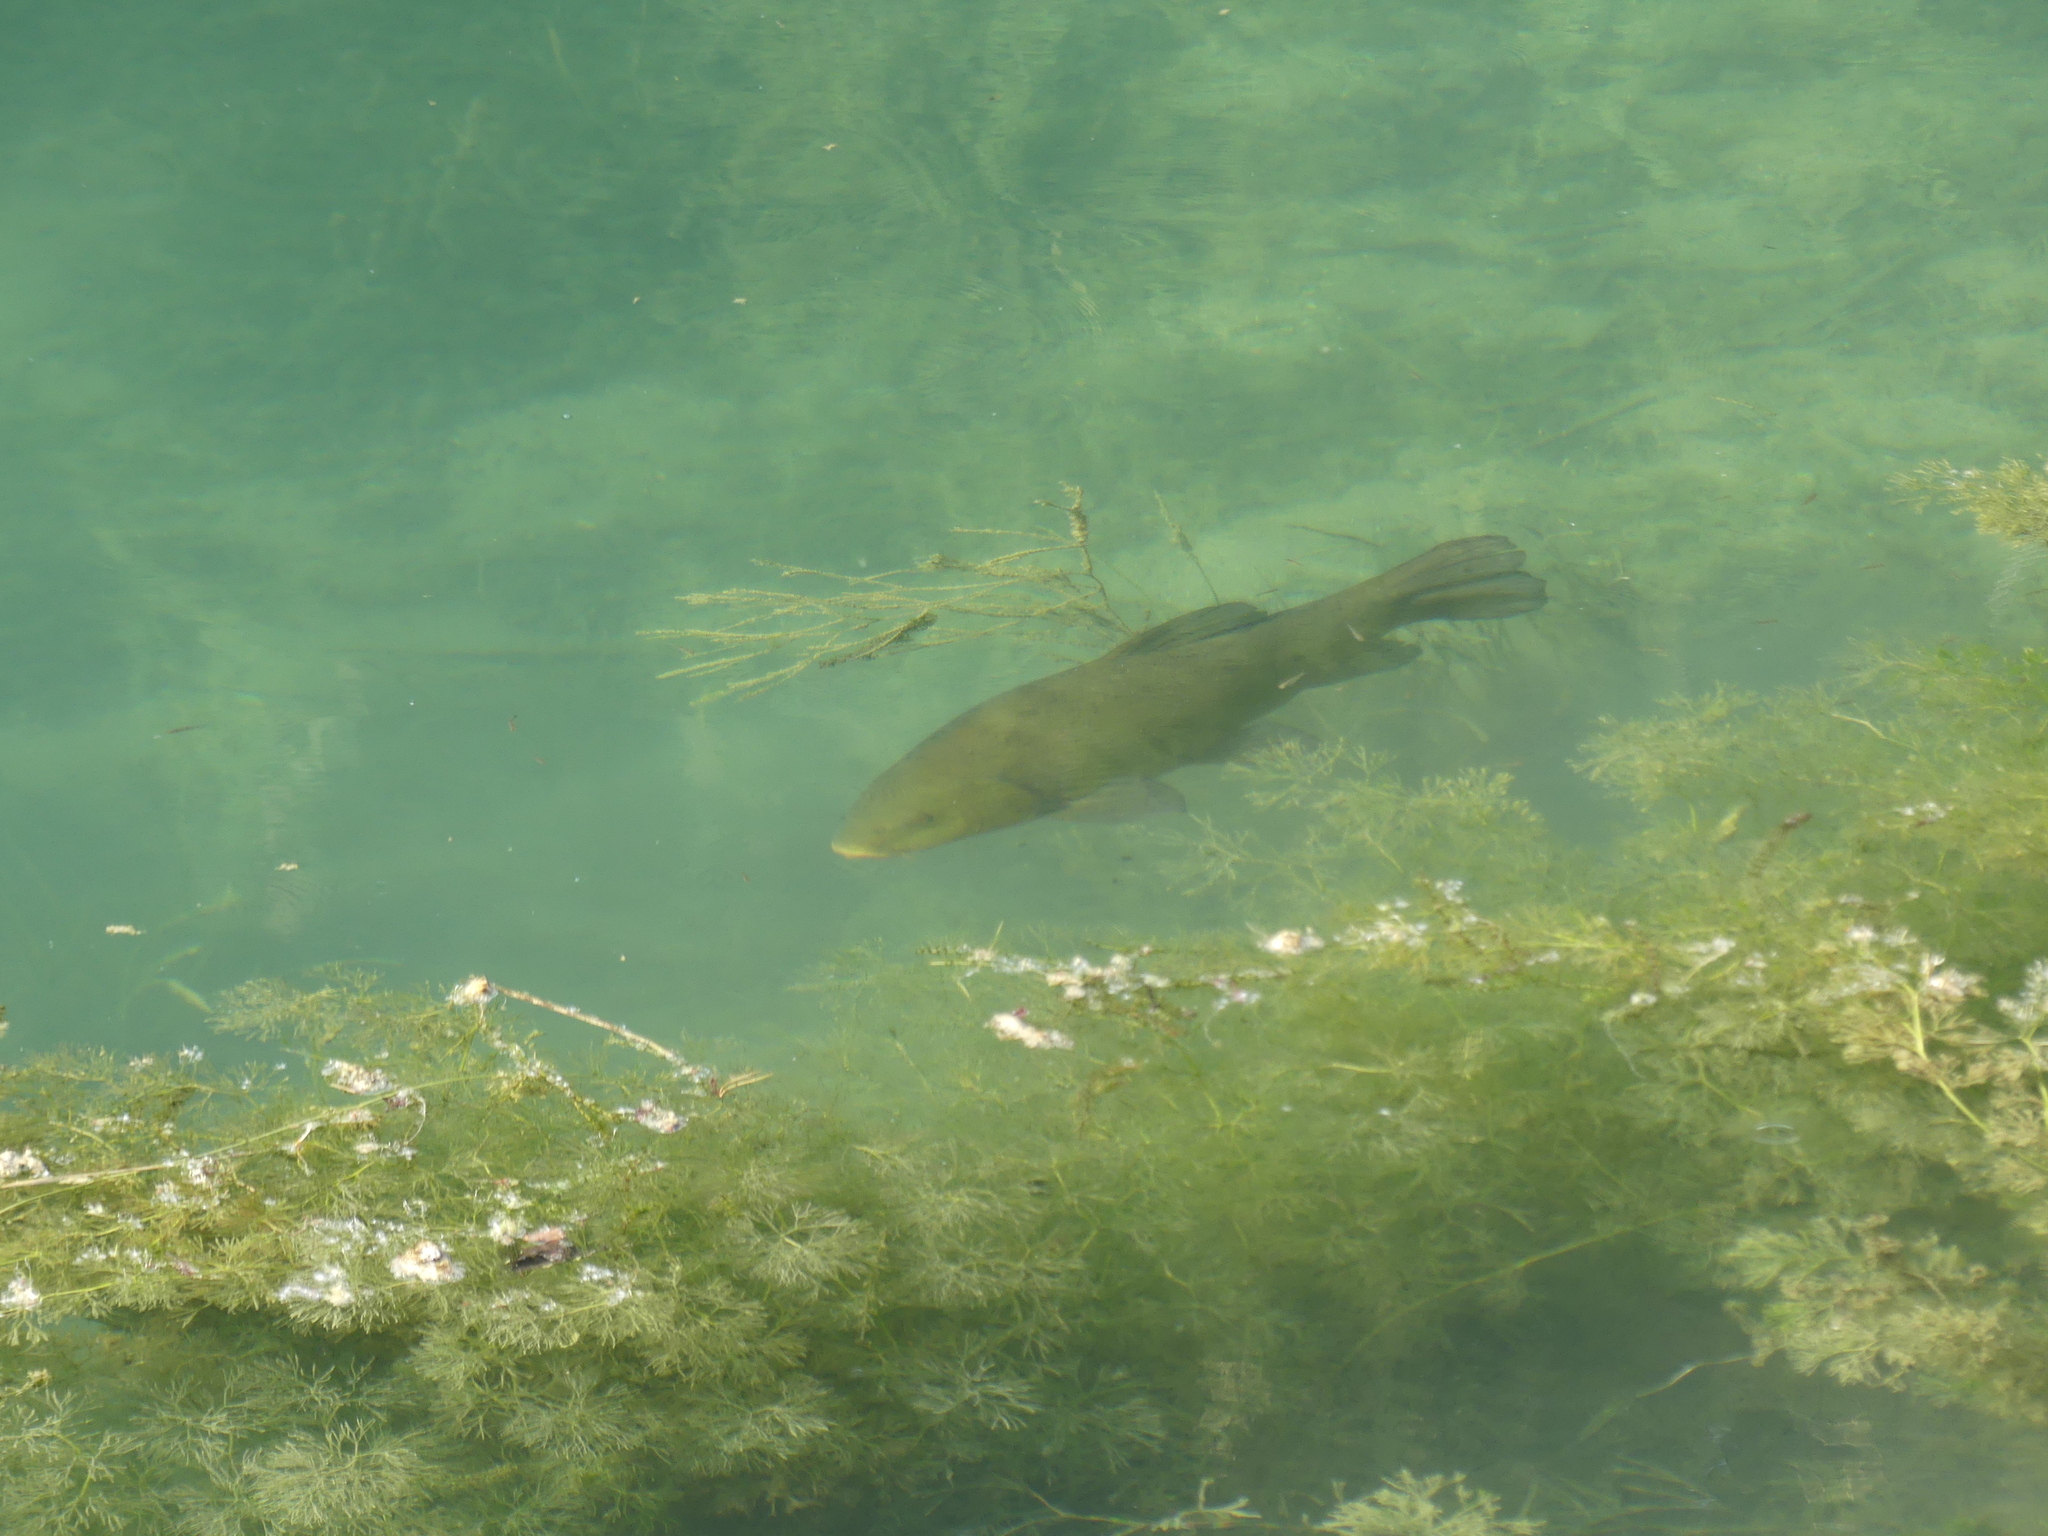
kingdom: Animalia
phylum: Chordata
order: Cypriniformes
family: Cyprinidae
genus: Tinca
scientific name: Tinca tinca
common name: Tench
